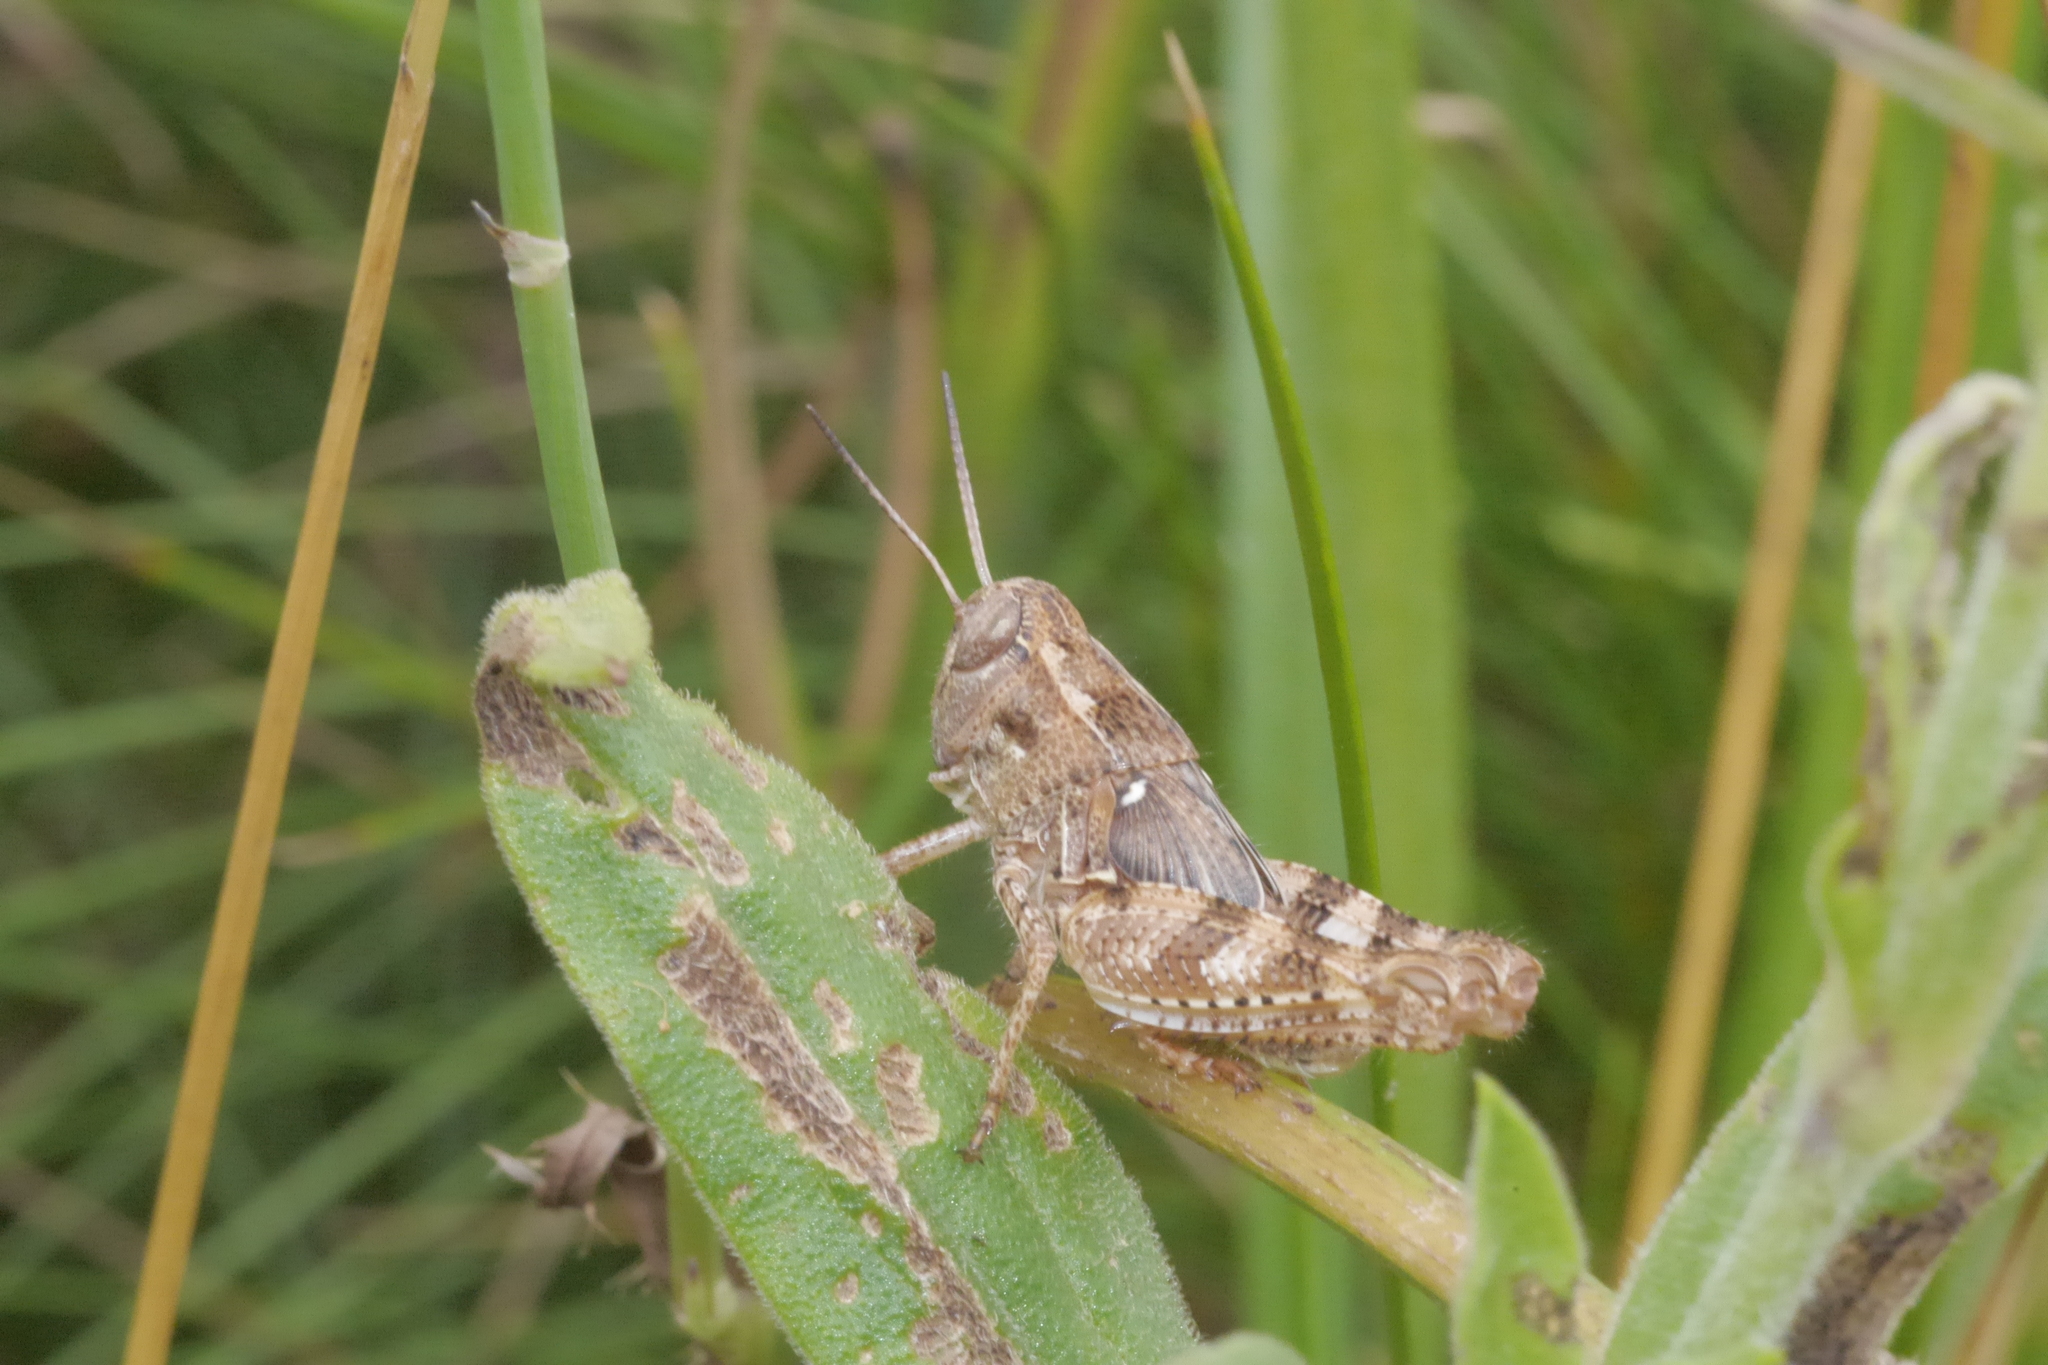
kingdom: Animalia
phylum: Arthropoda
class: Insecta
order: Orthoptera
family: Acrididae
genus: Calliptamus
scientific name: Calliptamus italicus
